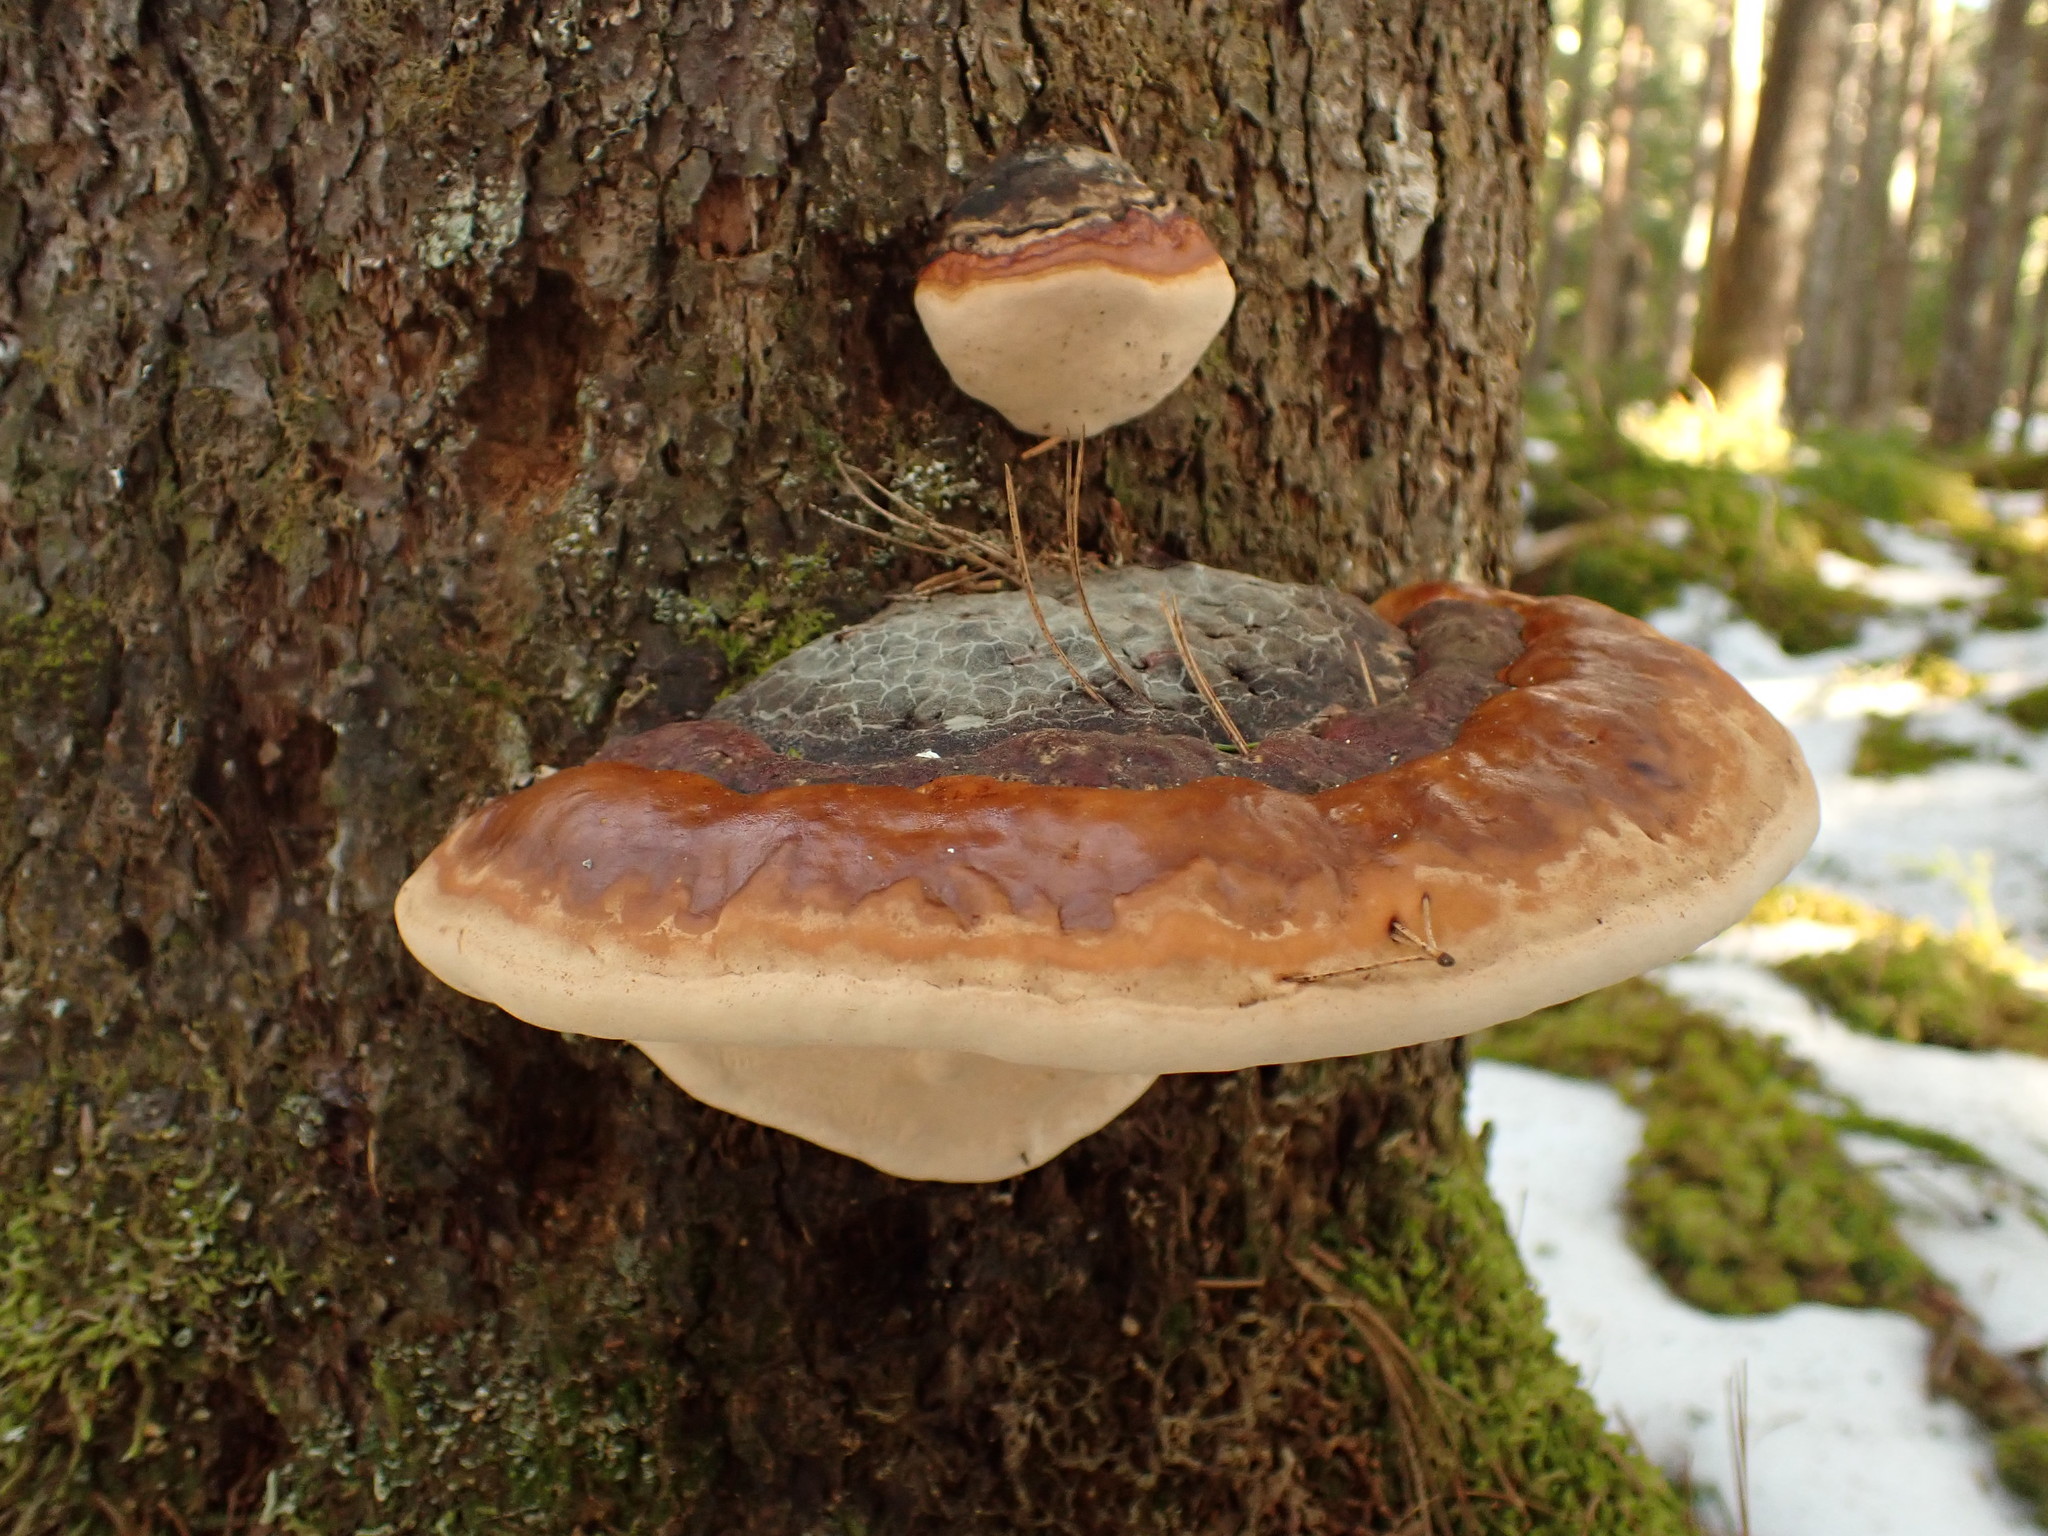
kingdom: Fungi
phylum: Basidiomycota
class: Agaricomycetes
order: Polyporales
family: Fomitopsidaceae
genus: Fomitopsis
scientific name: Fomitopsis mounceae
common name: Northern red belt
